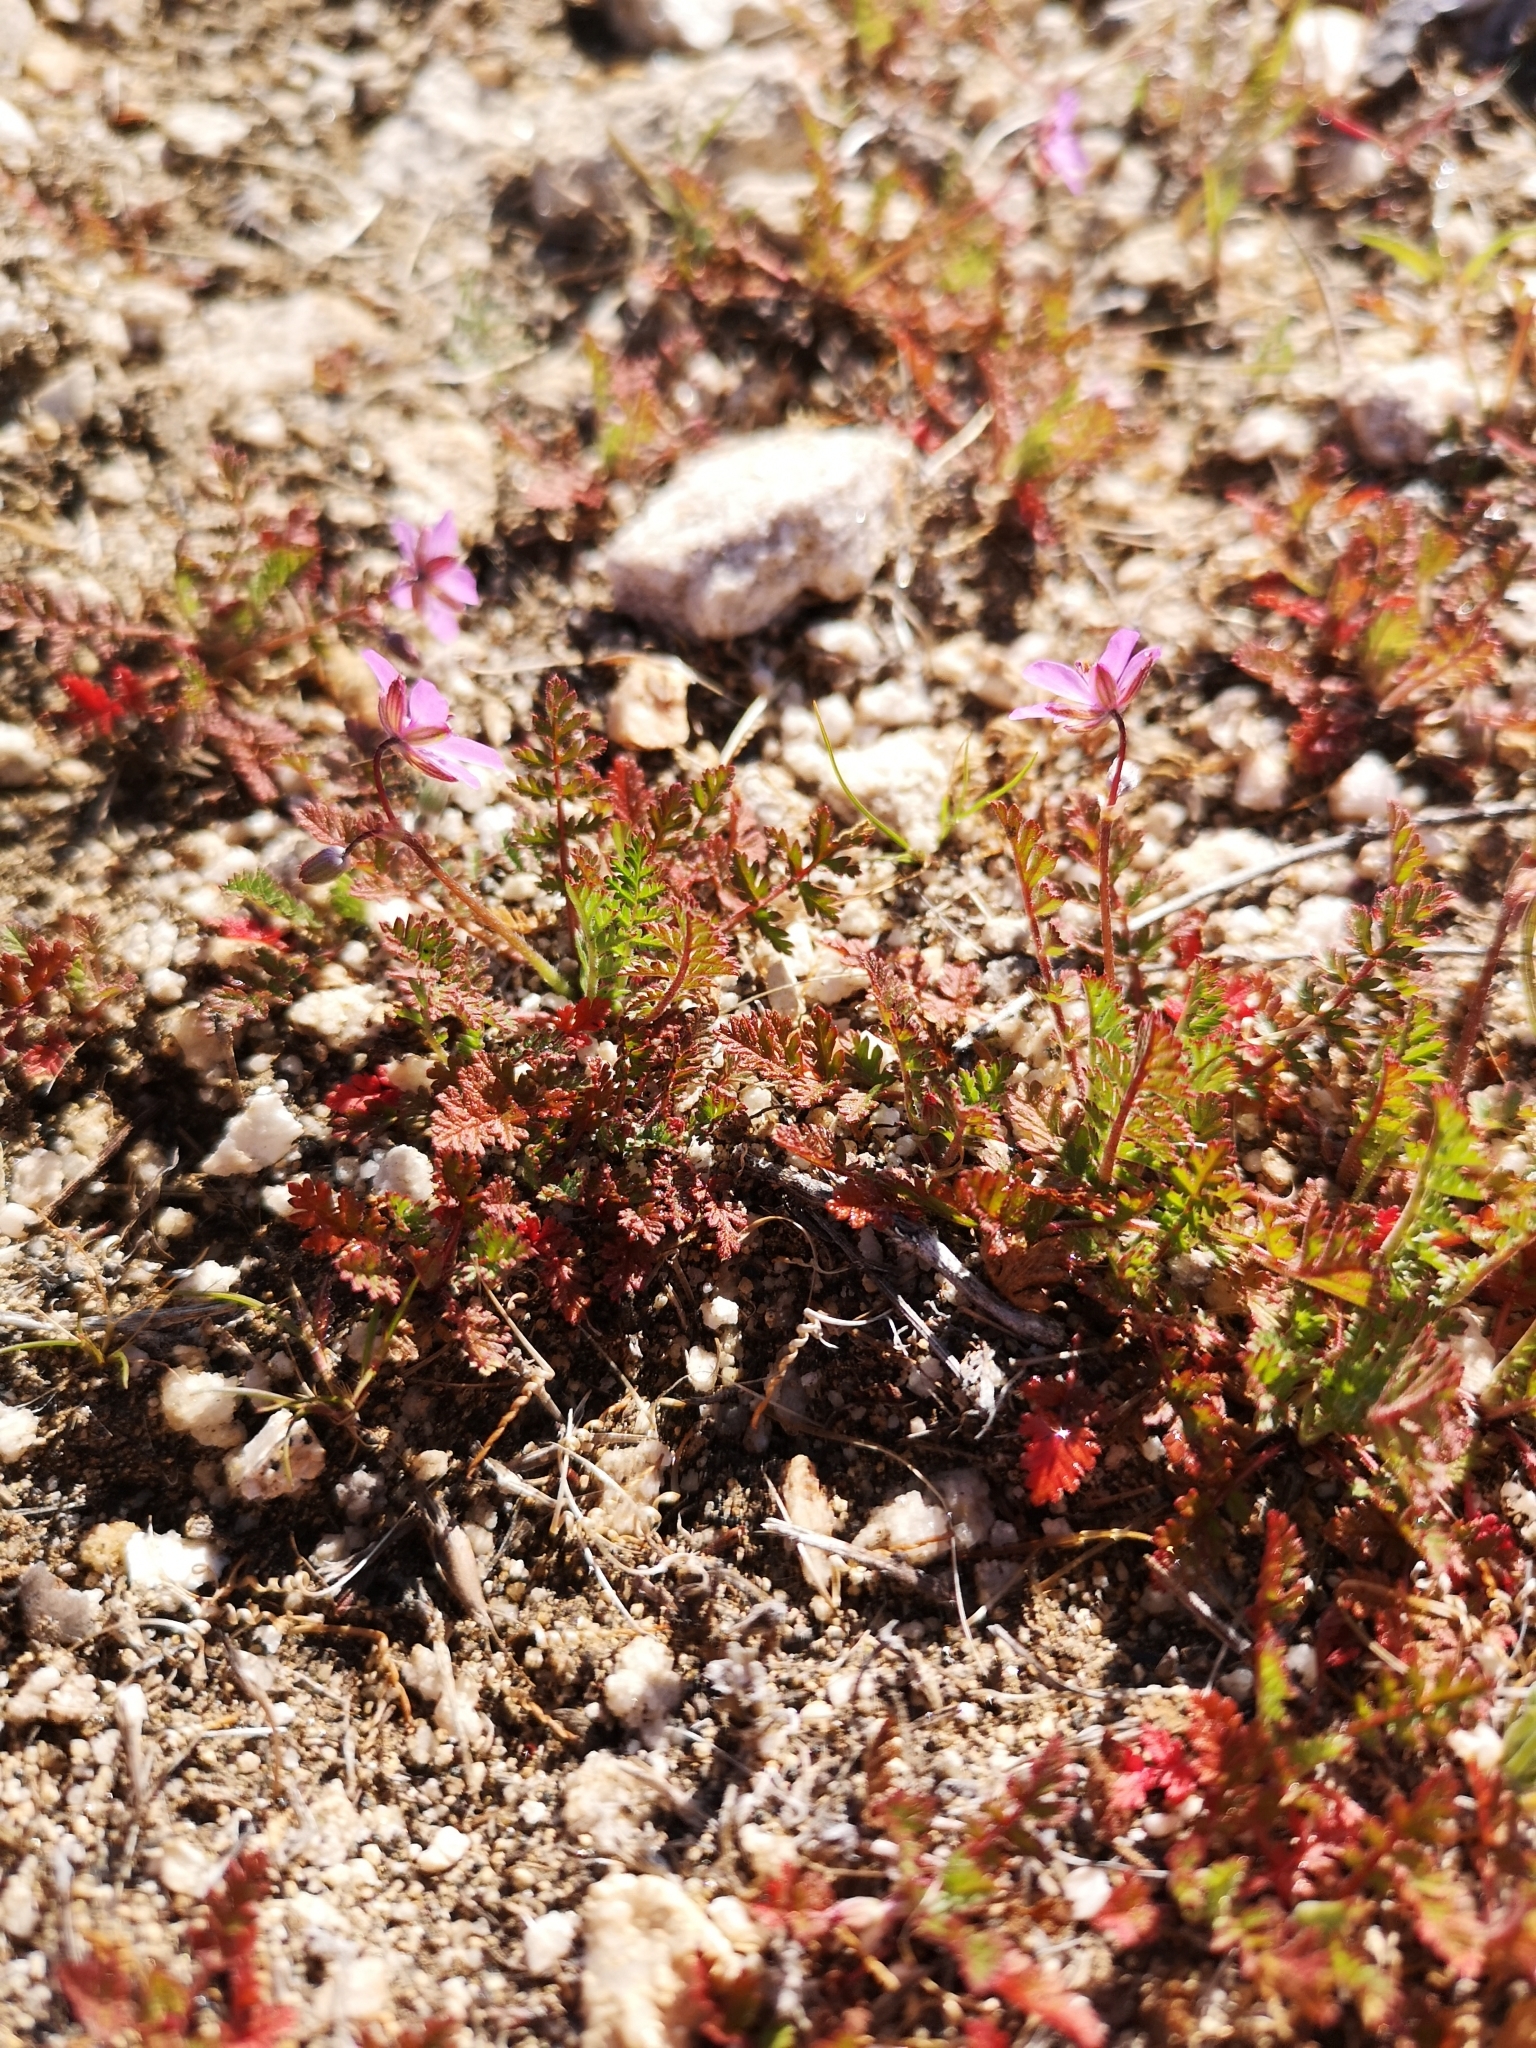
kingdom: Plantae
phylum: Tracheophyta
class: Magnoliopsida
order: Geraniales
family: Geraniaceae
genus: Erodium
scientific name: Erodium cicutarium
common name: Common stork's-bill
